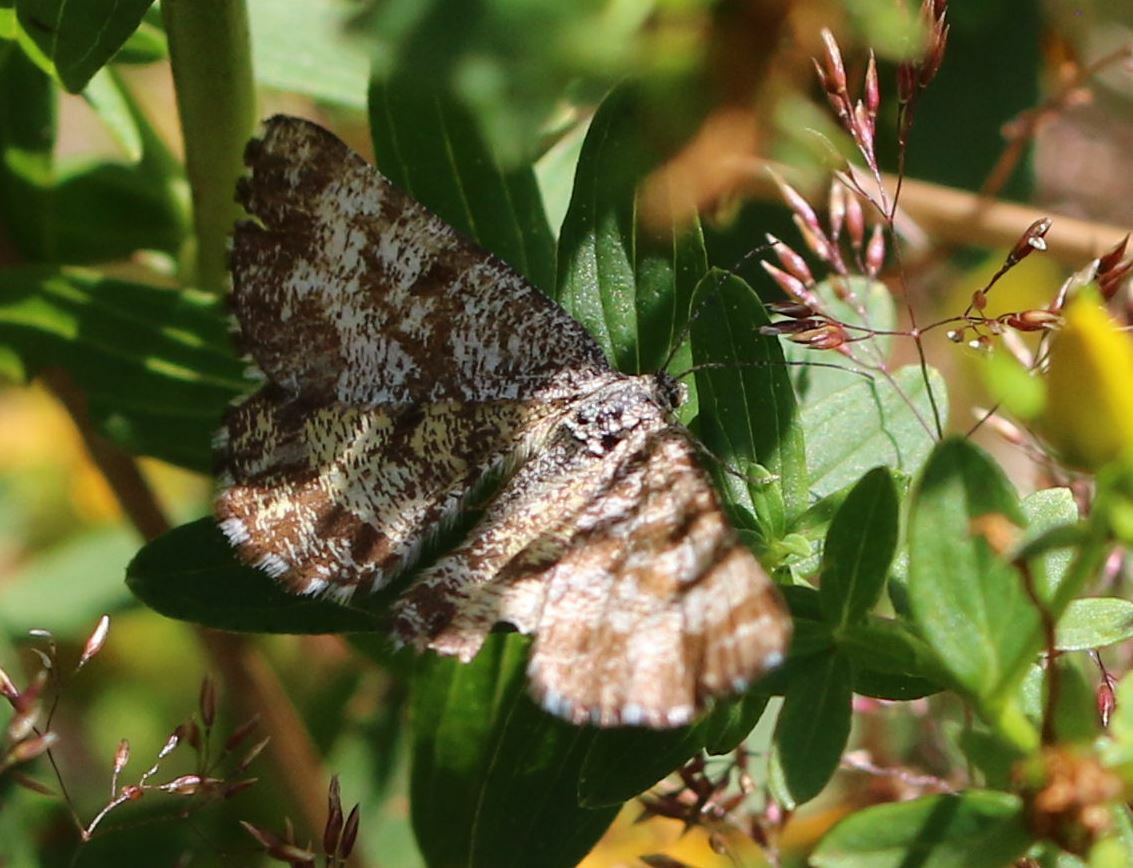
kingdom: Animalia
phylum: Arthropoda
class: Insecta
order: Lepidoptera
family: Geometridae
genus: Ematurga
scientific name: Ematurga atomaria
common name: Common heath
